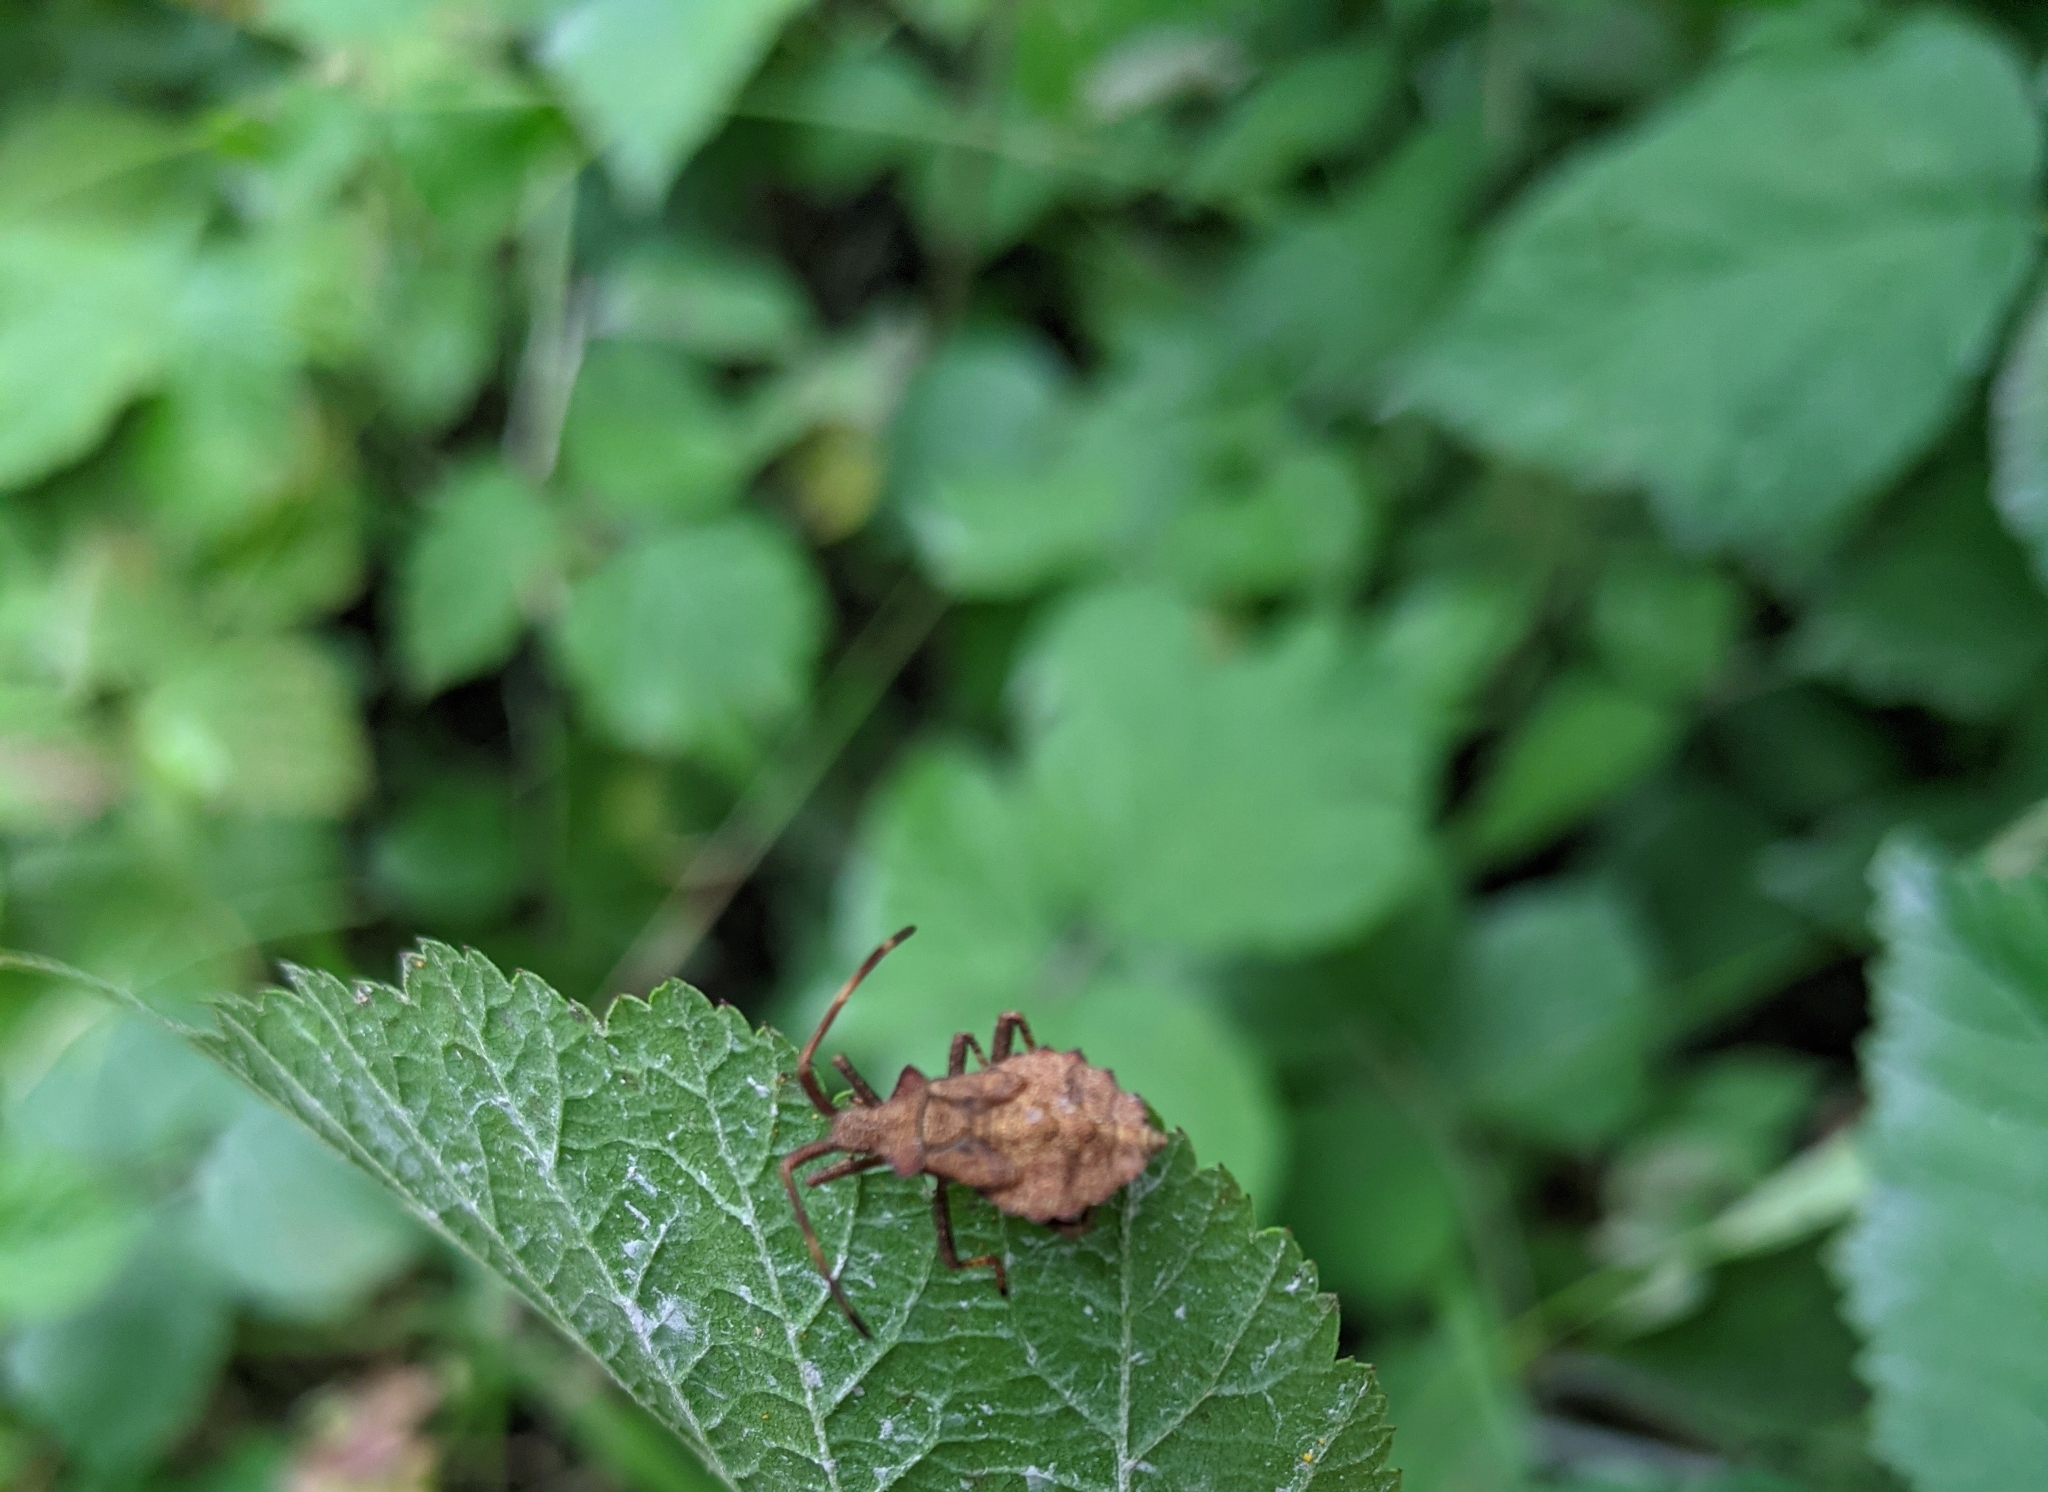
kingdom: Animalia
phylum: Arthropoda
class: Insecta
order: Hemiptera
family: Coreidae
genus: Coreus
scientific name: Coreus marginatus
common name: Dock bug
